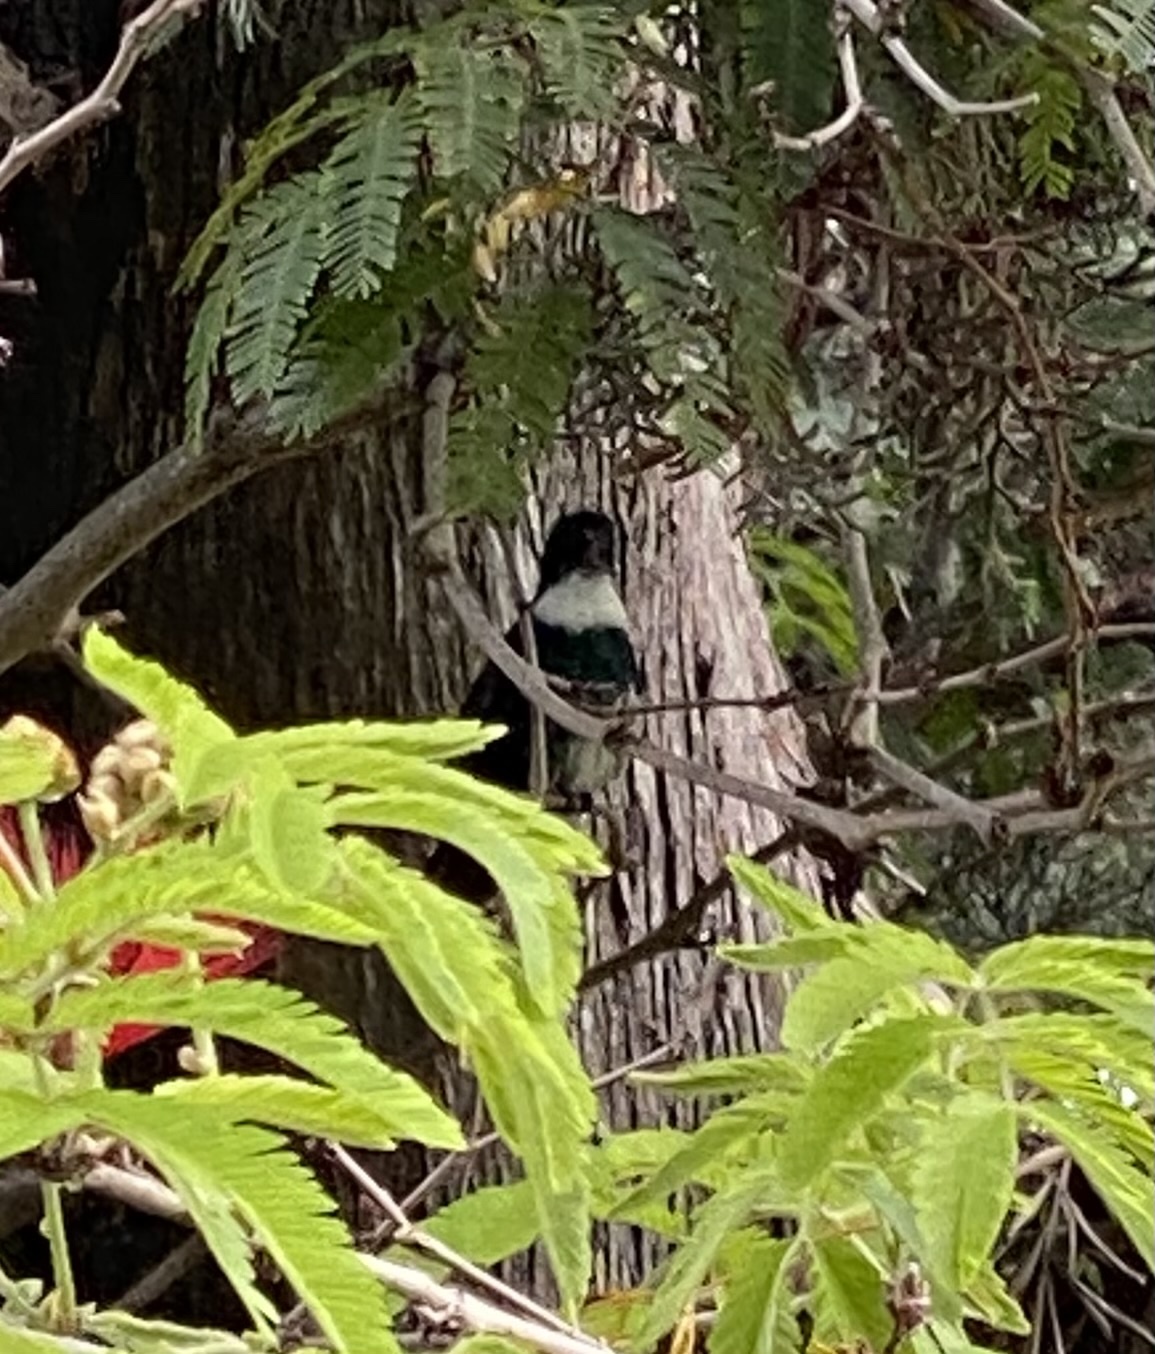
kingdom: Animalia
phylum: Chordata
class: Aves
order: Apodiformes
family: Trochilidae
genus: Leucochloris
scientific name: Leucochloris albicollis
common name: White-throated hummingbird
